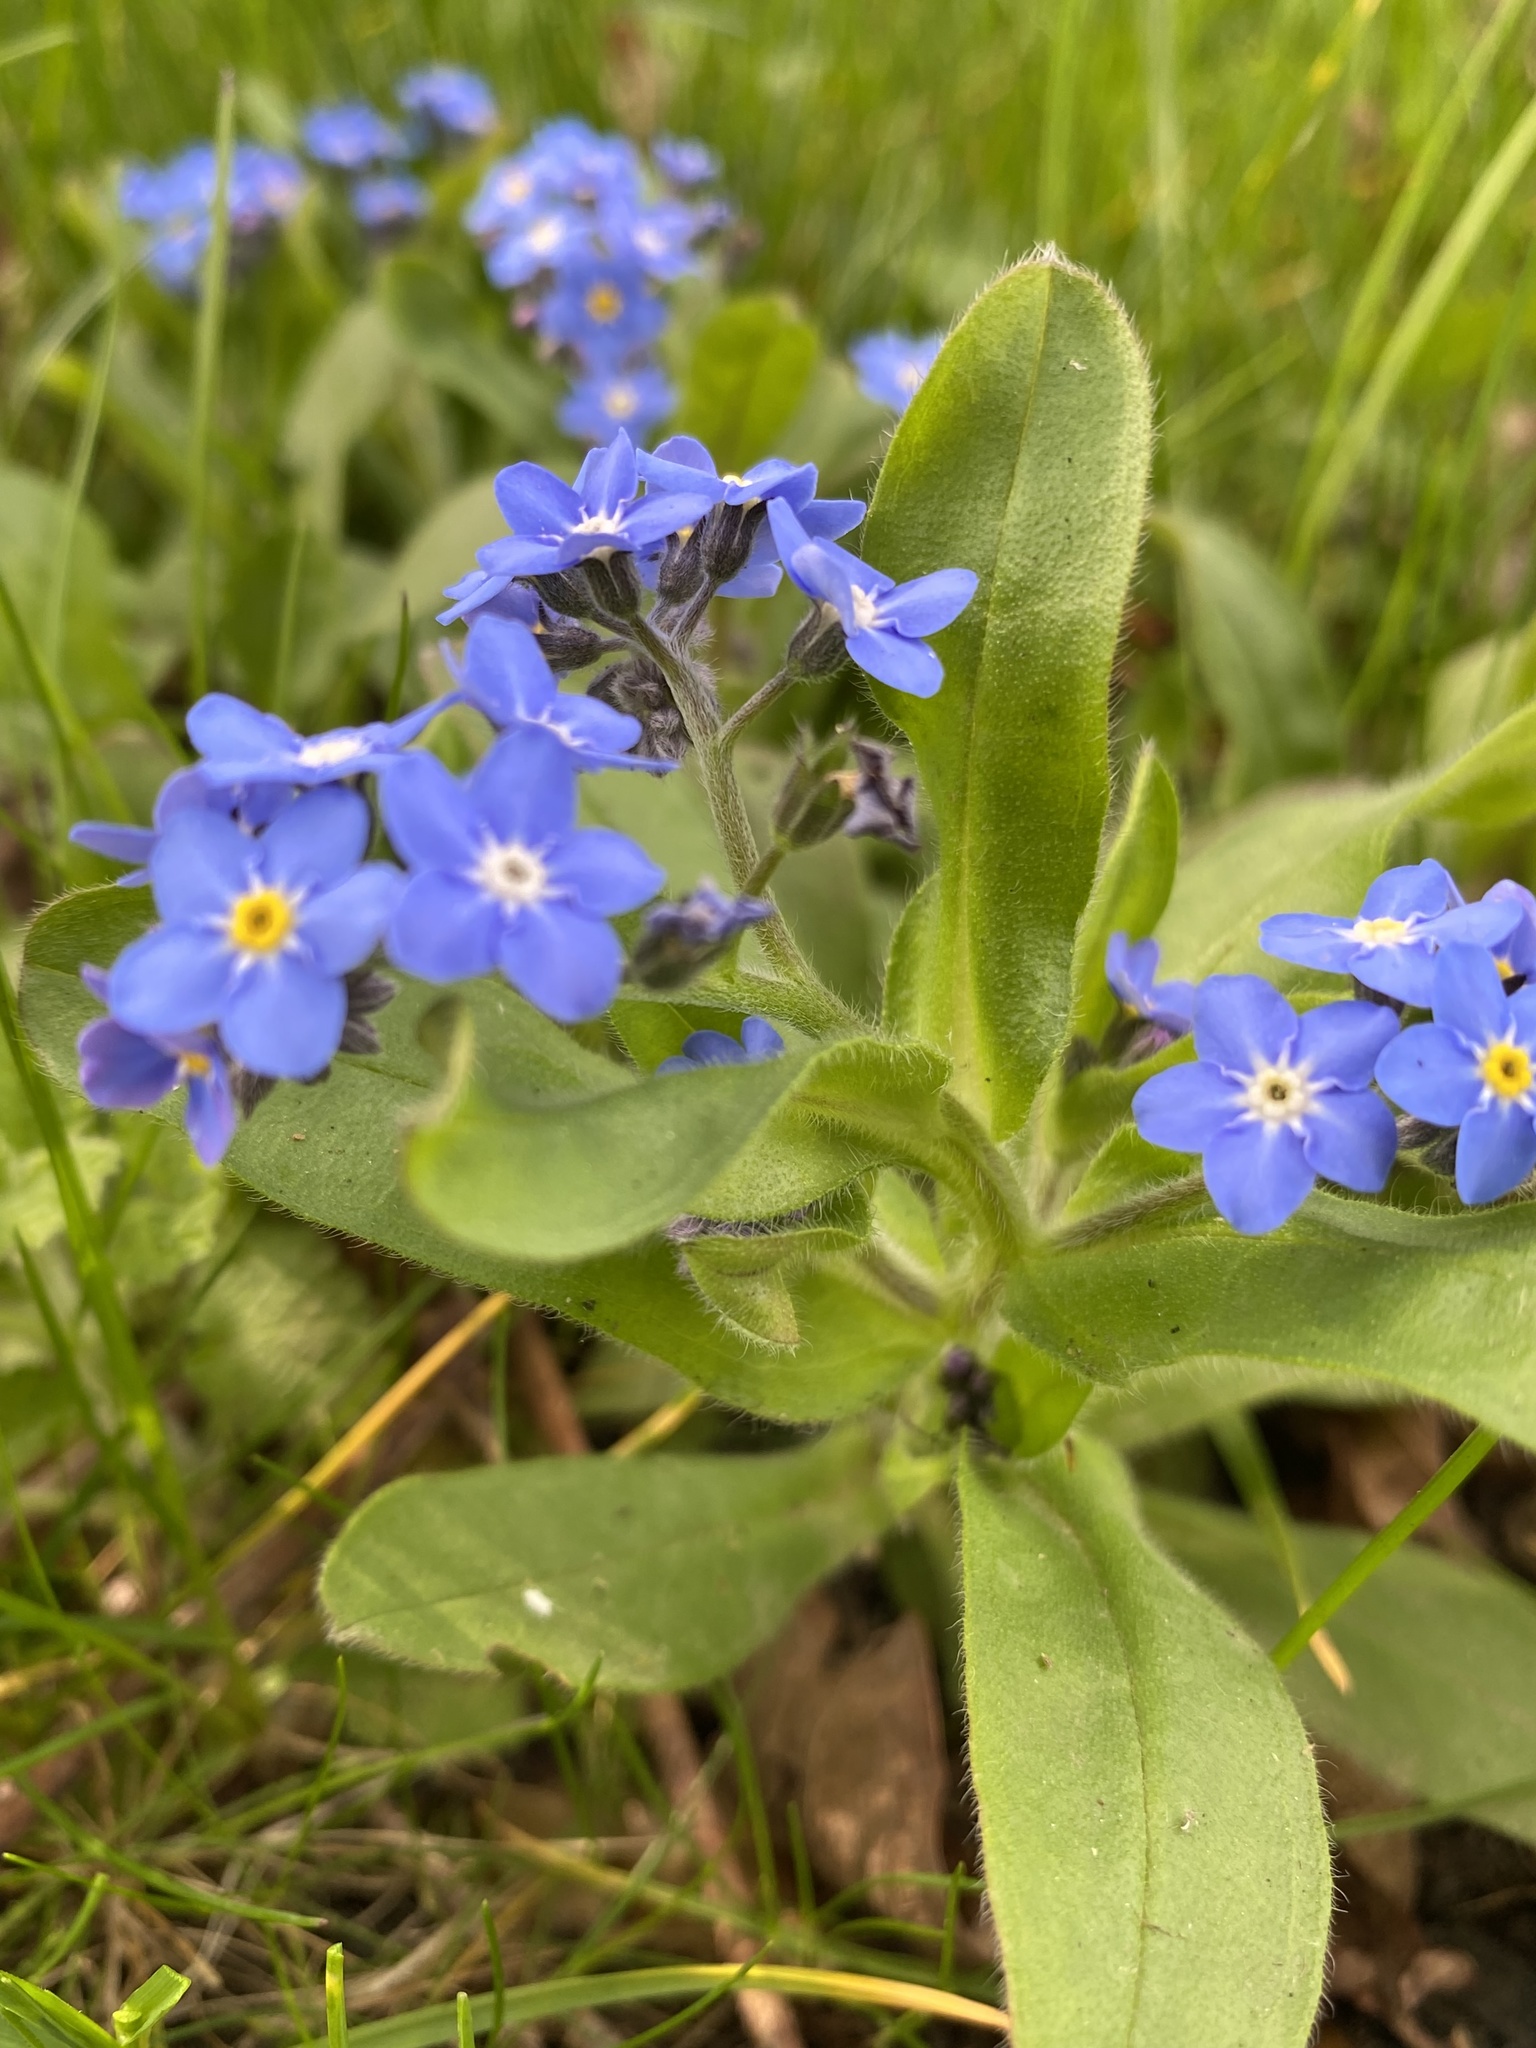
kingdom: Plantae
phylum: Tracheophyta
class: Magnoliopsida
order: Boraginales
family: Boraginaceae
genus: Myosotis
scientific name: Myosotis sylvatica
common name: Wood forget-me-not
